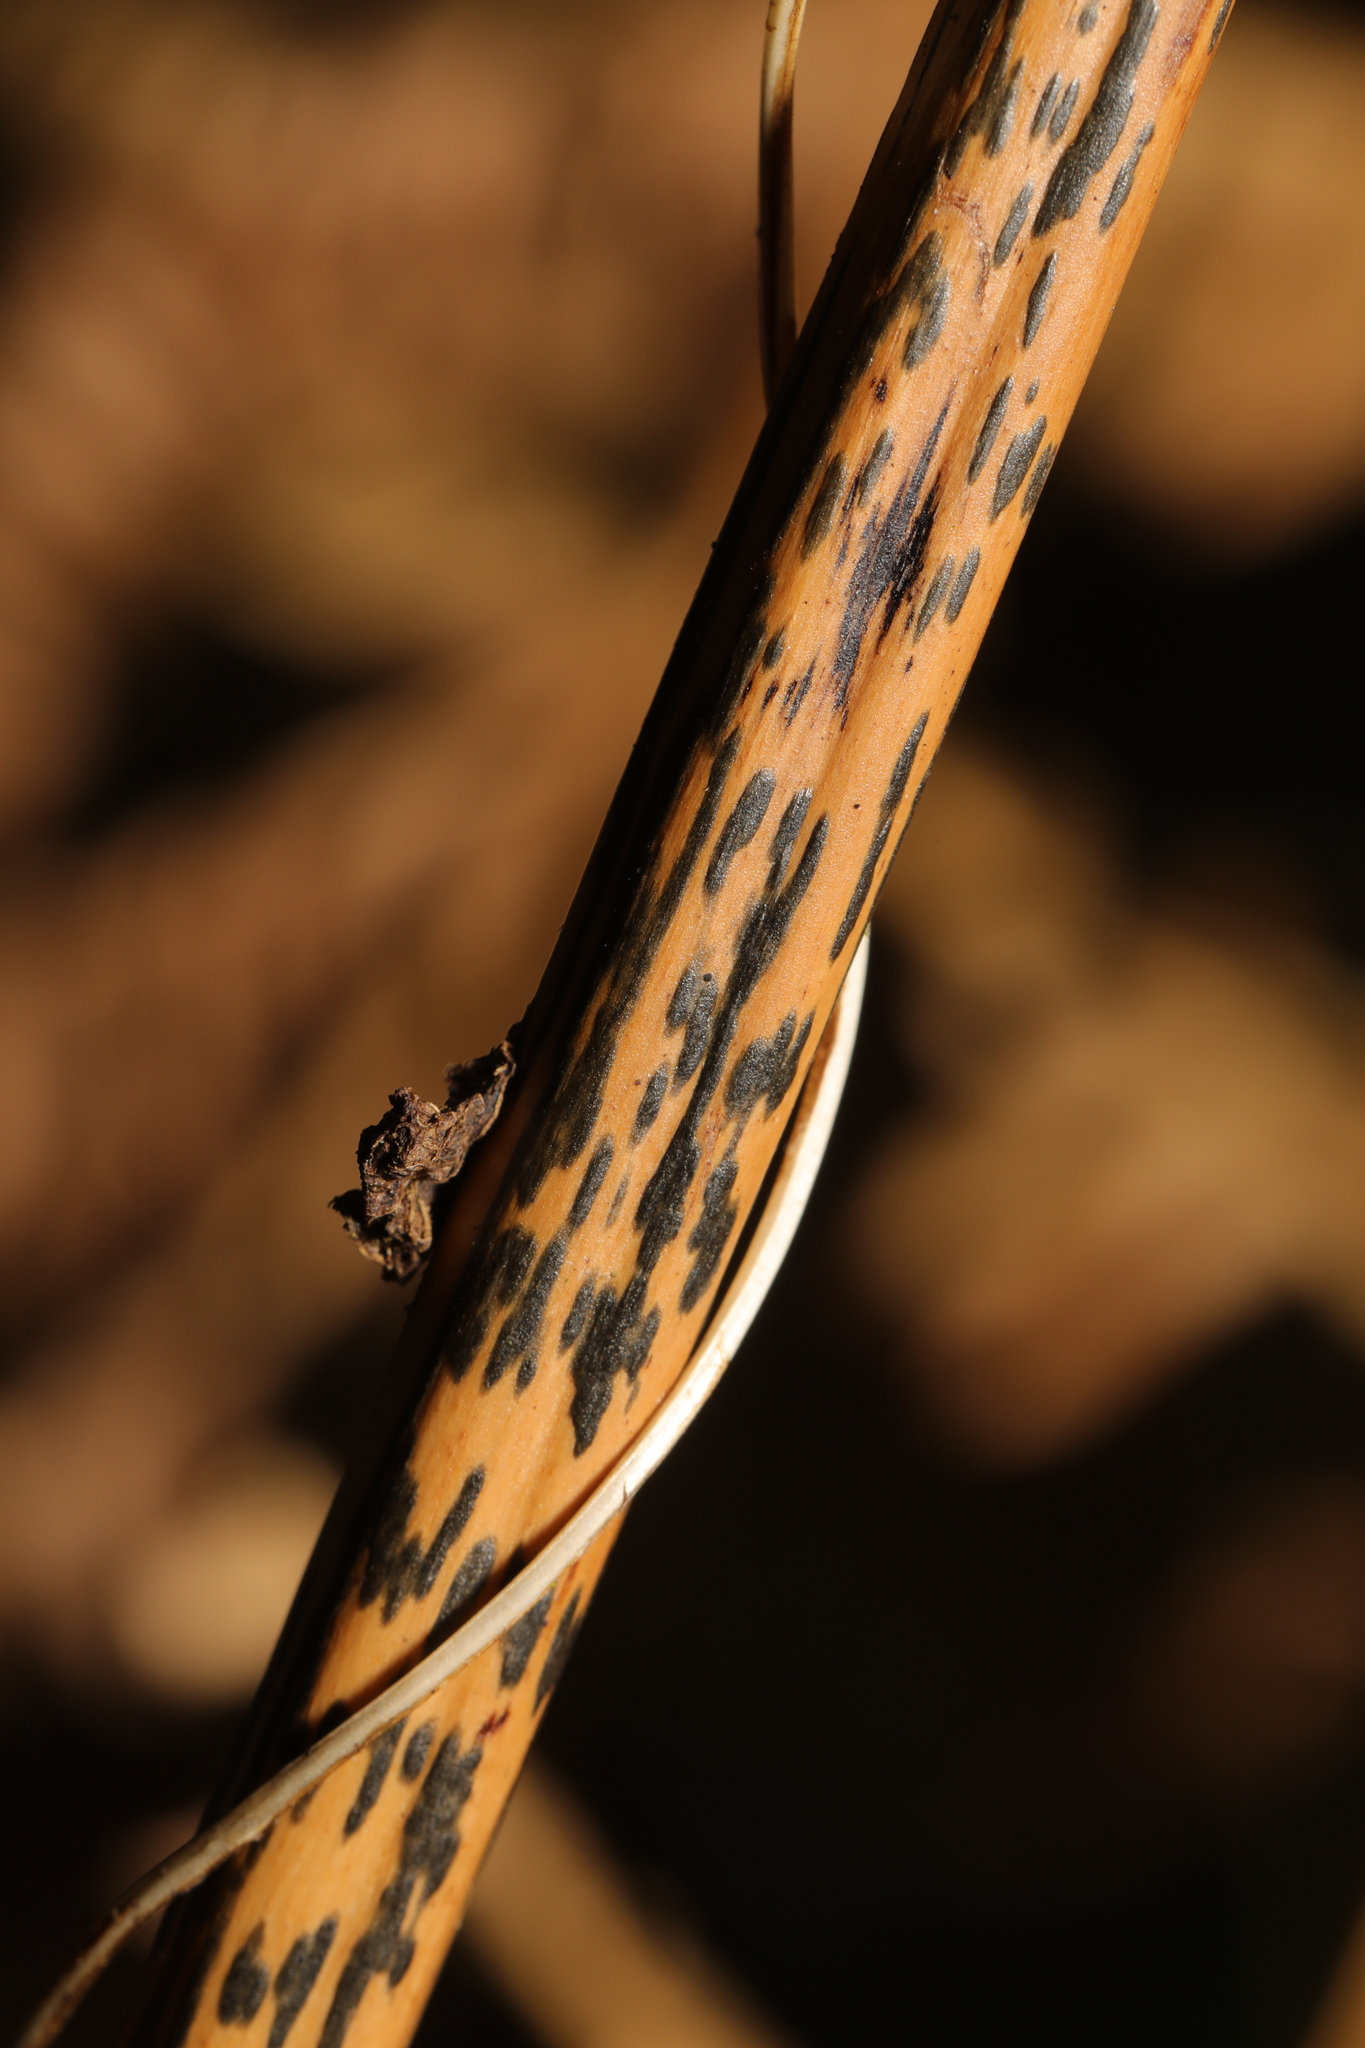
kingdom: Plantae
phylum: Tracheophyta
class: Polypodiopsida
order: Polypodiales
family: Dennstaedtiaceae
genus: Pteridium
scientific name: Pteridium aquilinum
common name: Bracken
